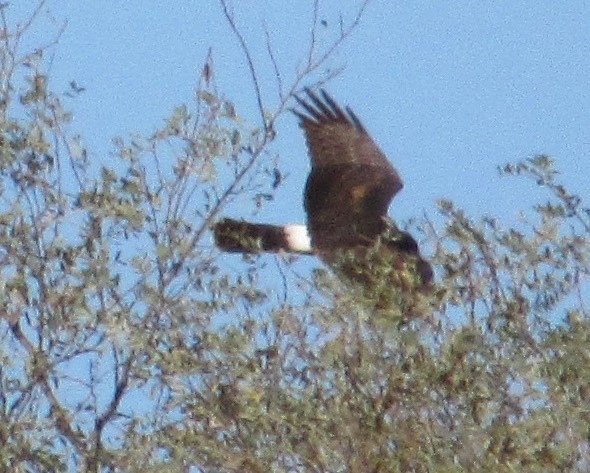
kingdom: Animalia
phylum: Chordata
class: Aves
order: Accipitriformes
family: Accipitridae
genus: Circus
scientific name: Circus cyaneus
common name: Hen harrier
